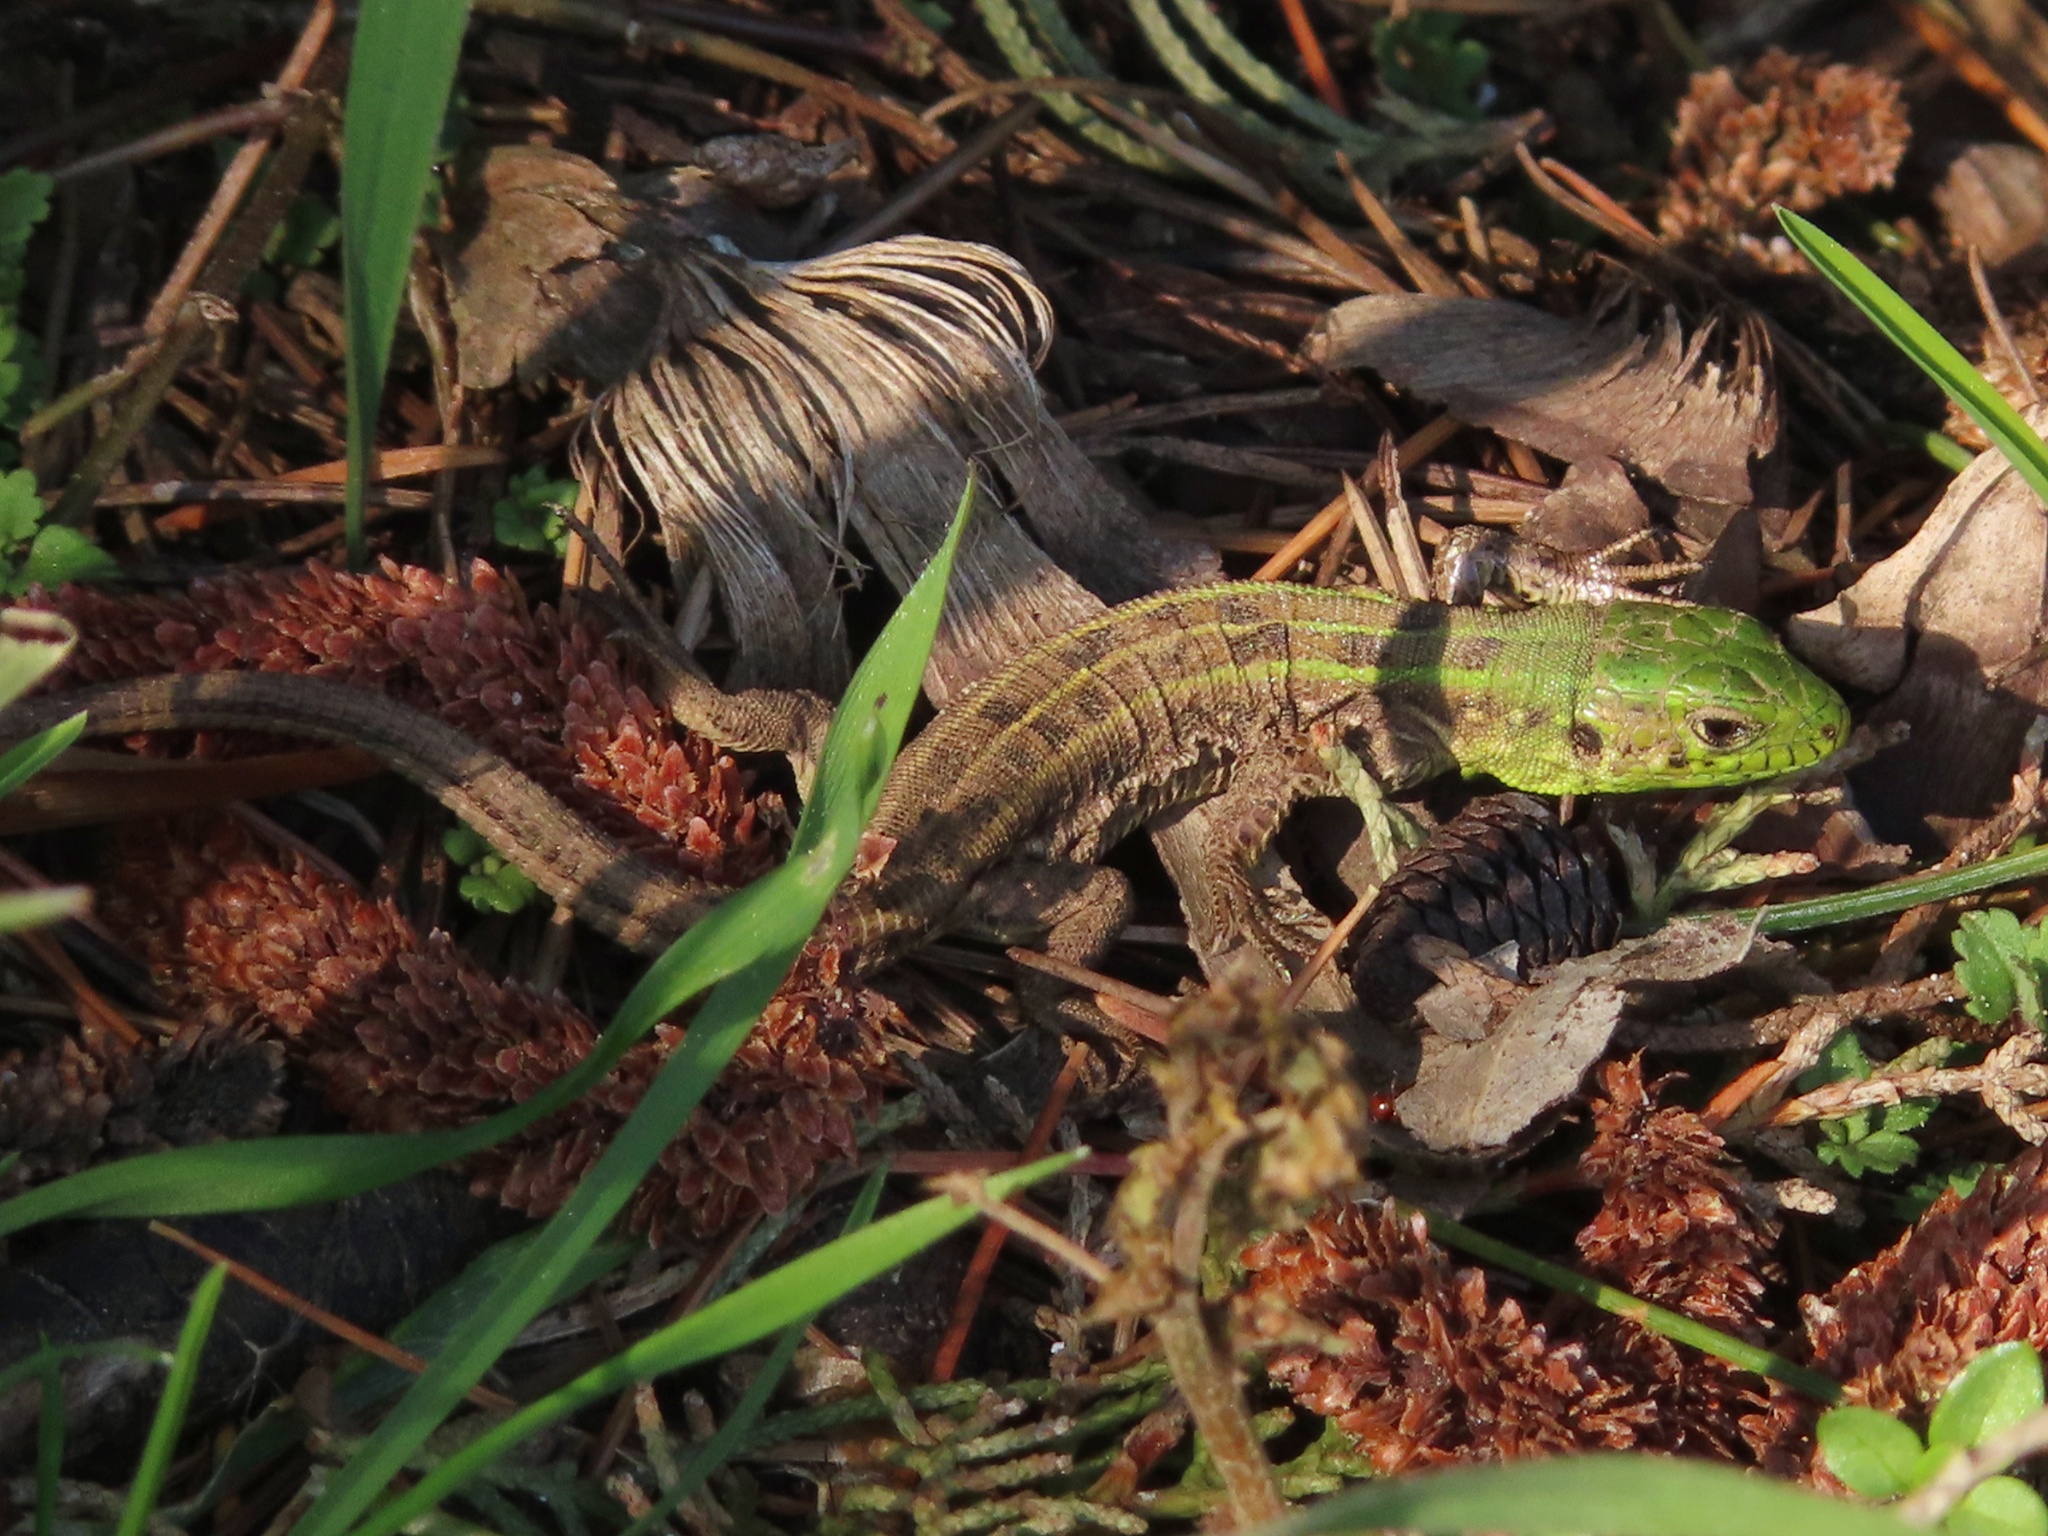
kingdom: Animalia
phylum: Chordata
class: Squamata
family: Lacertidae
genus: Lacerta
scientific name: Lacerta agilis
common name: Sand lizard
